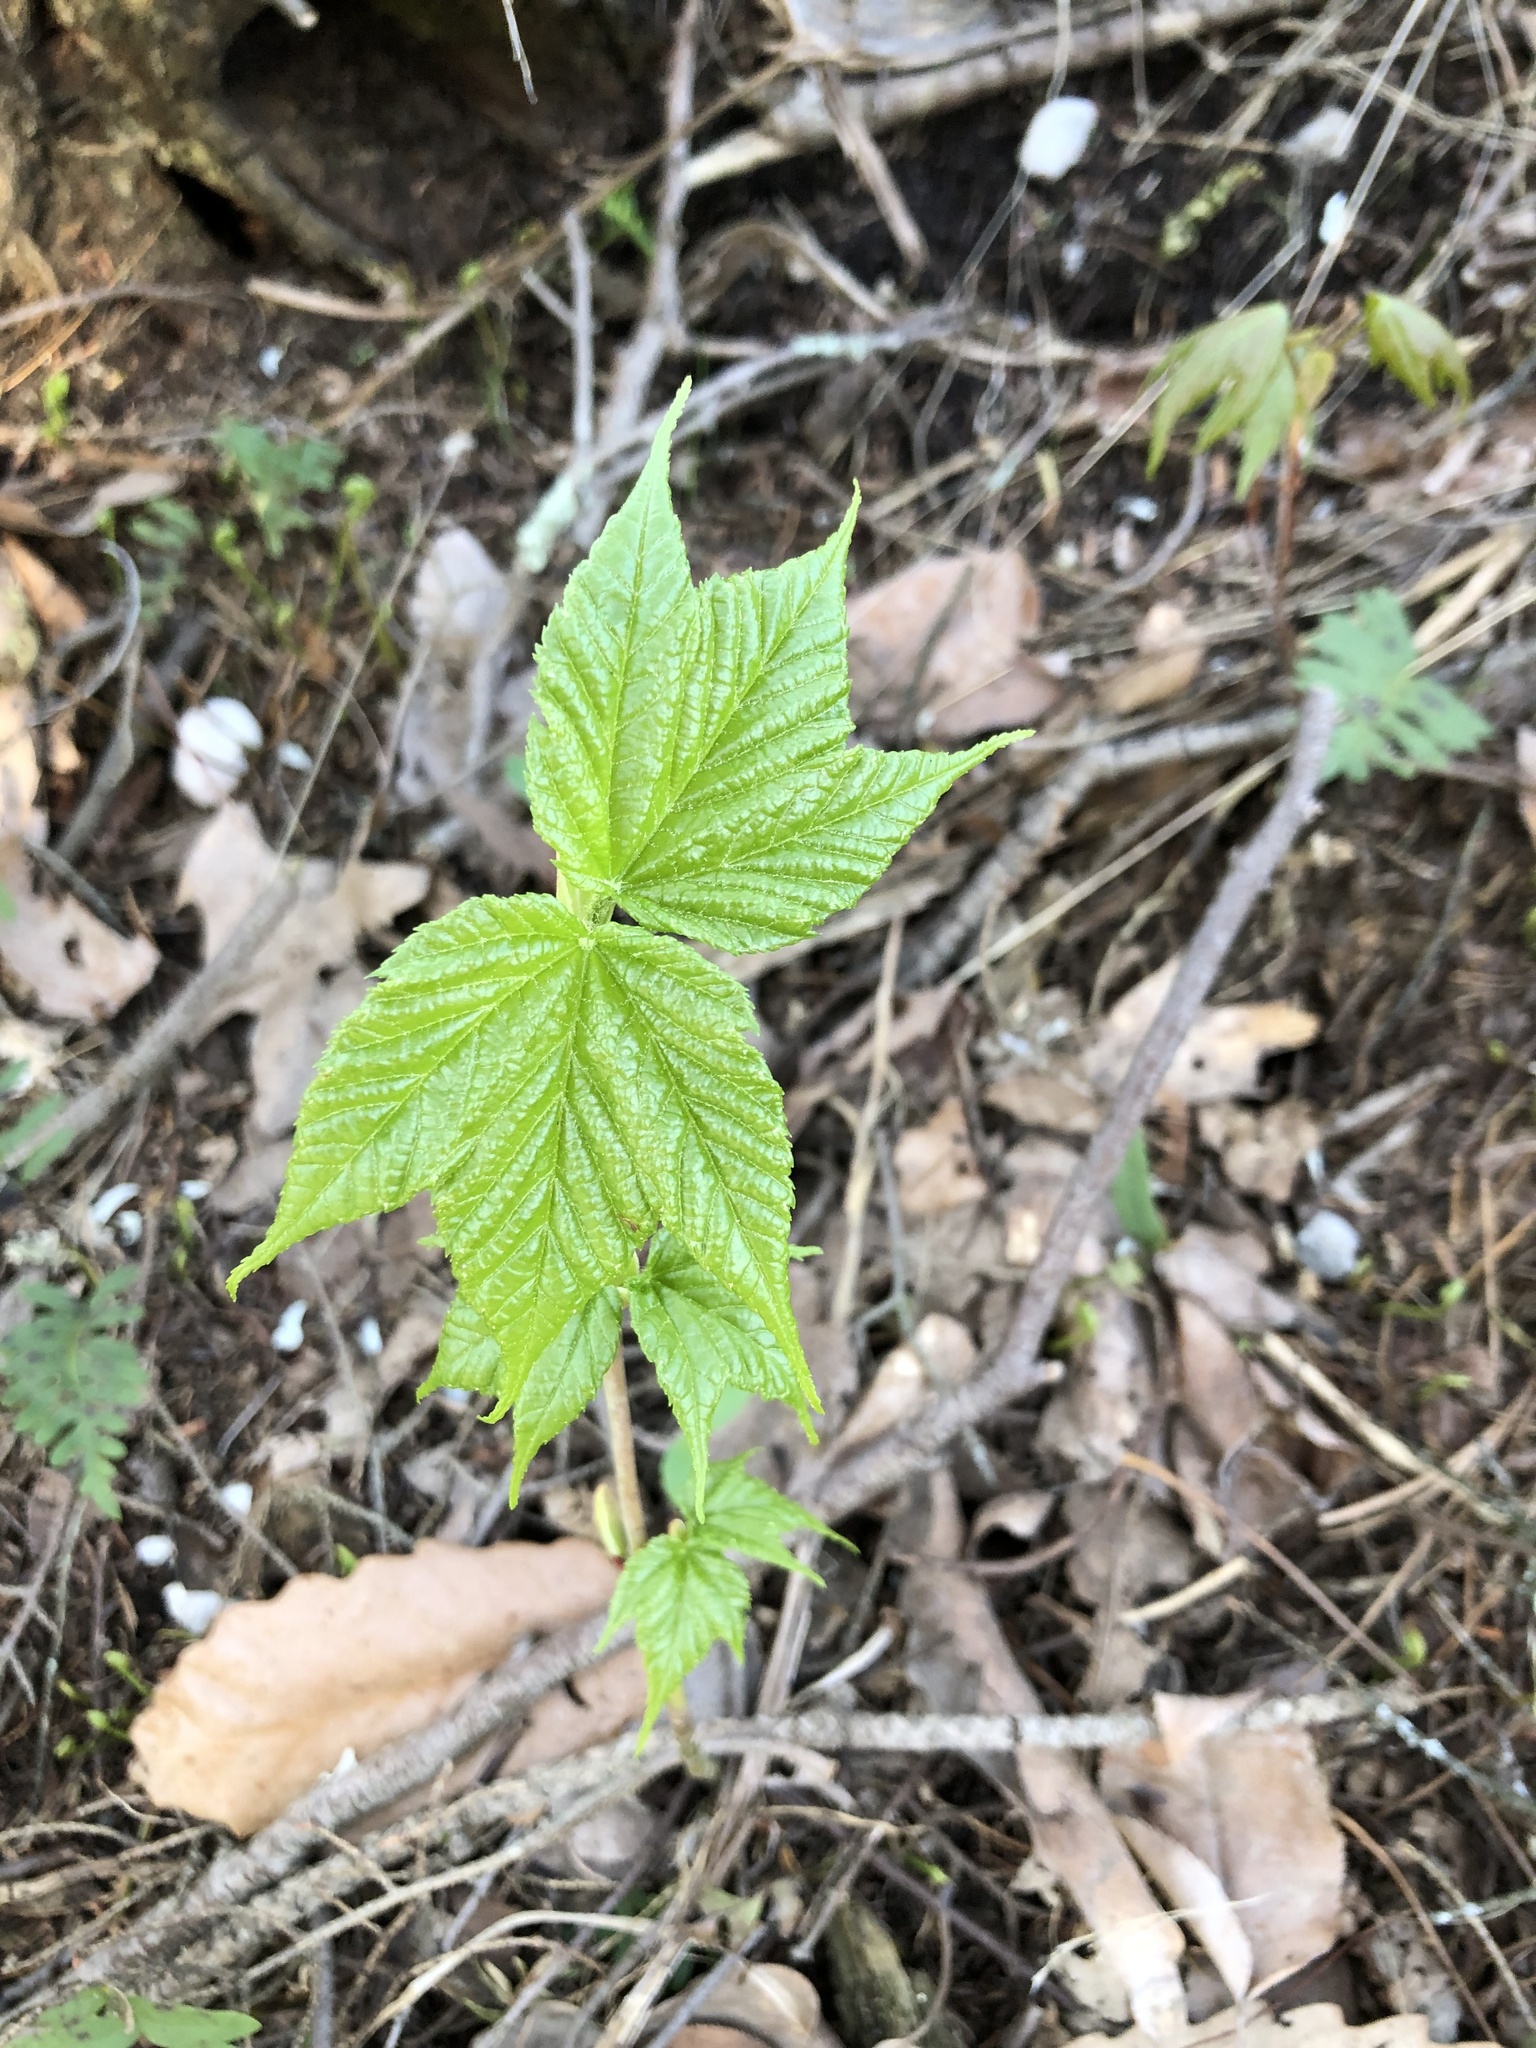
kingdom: Plantae
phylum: Tracheophyta
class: Magnoliopsida
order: Sapindales
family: Sapindaceae
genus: Acer
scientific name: Acer pensylvanicum
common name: Moosewood
